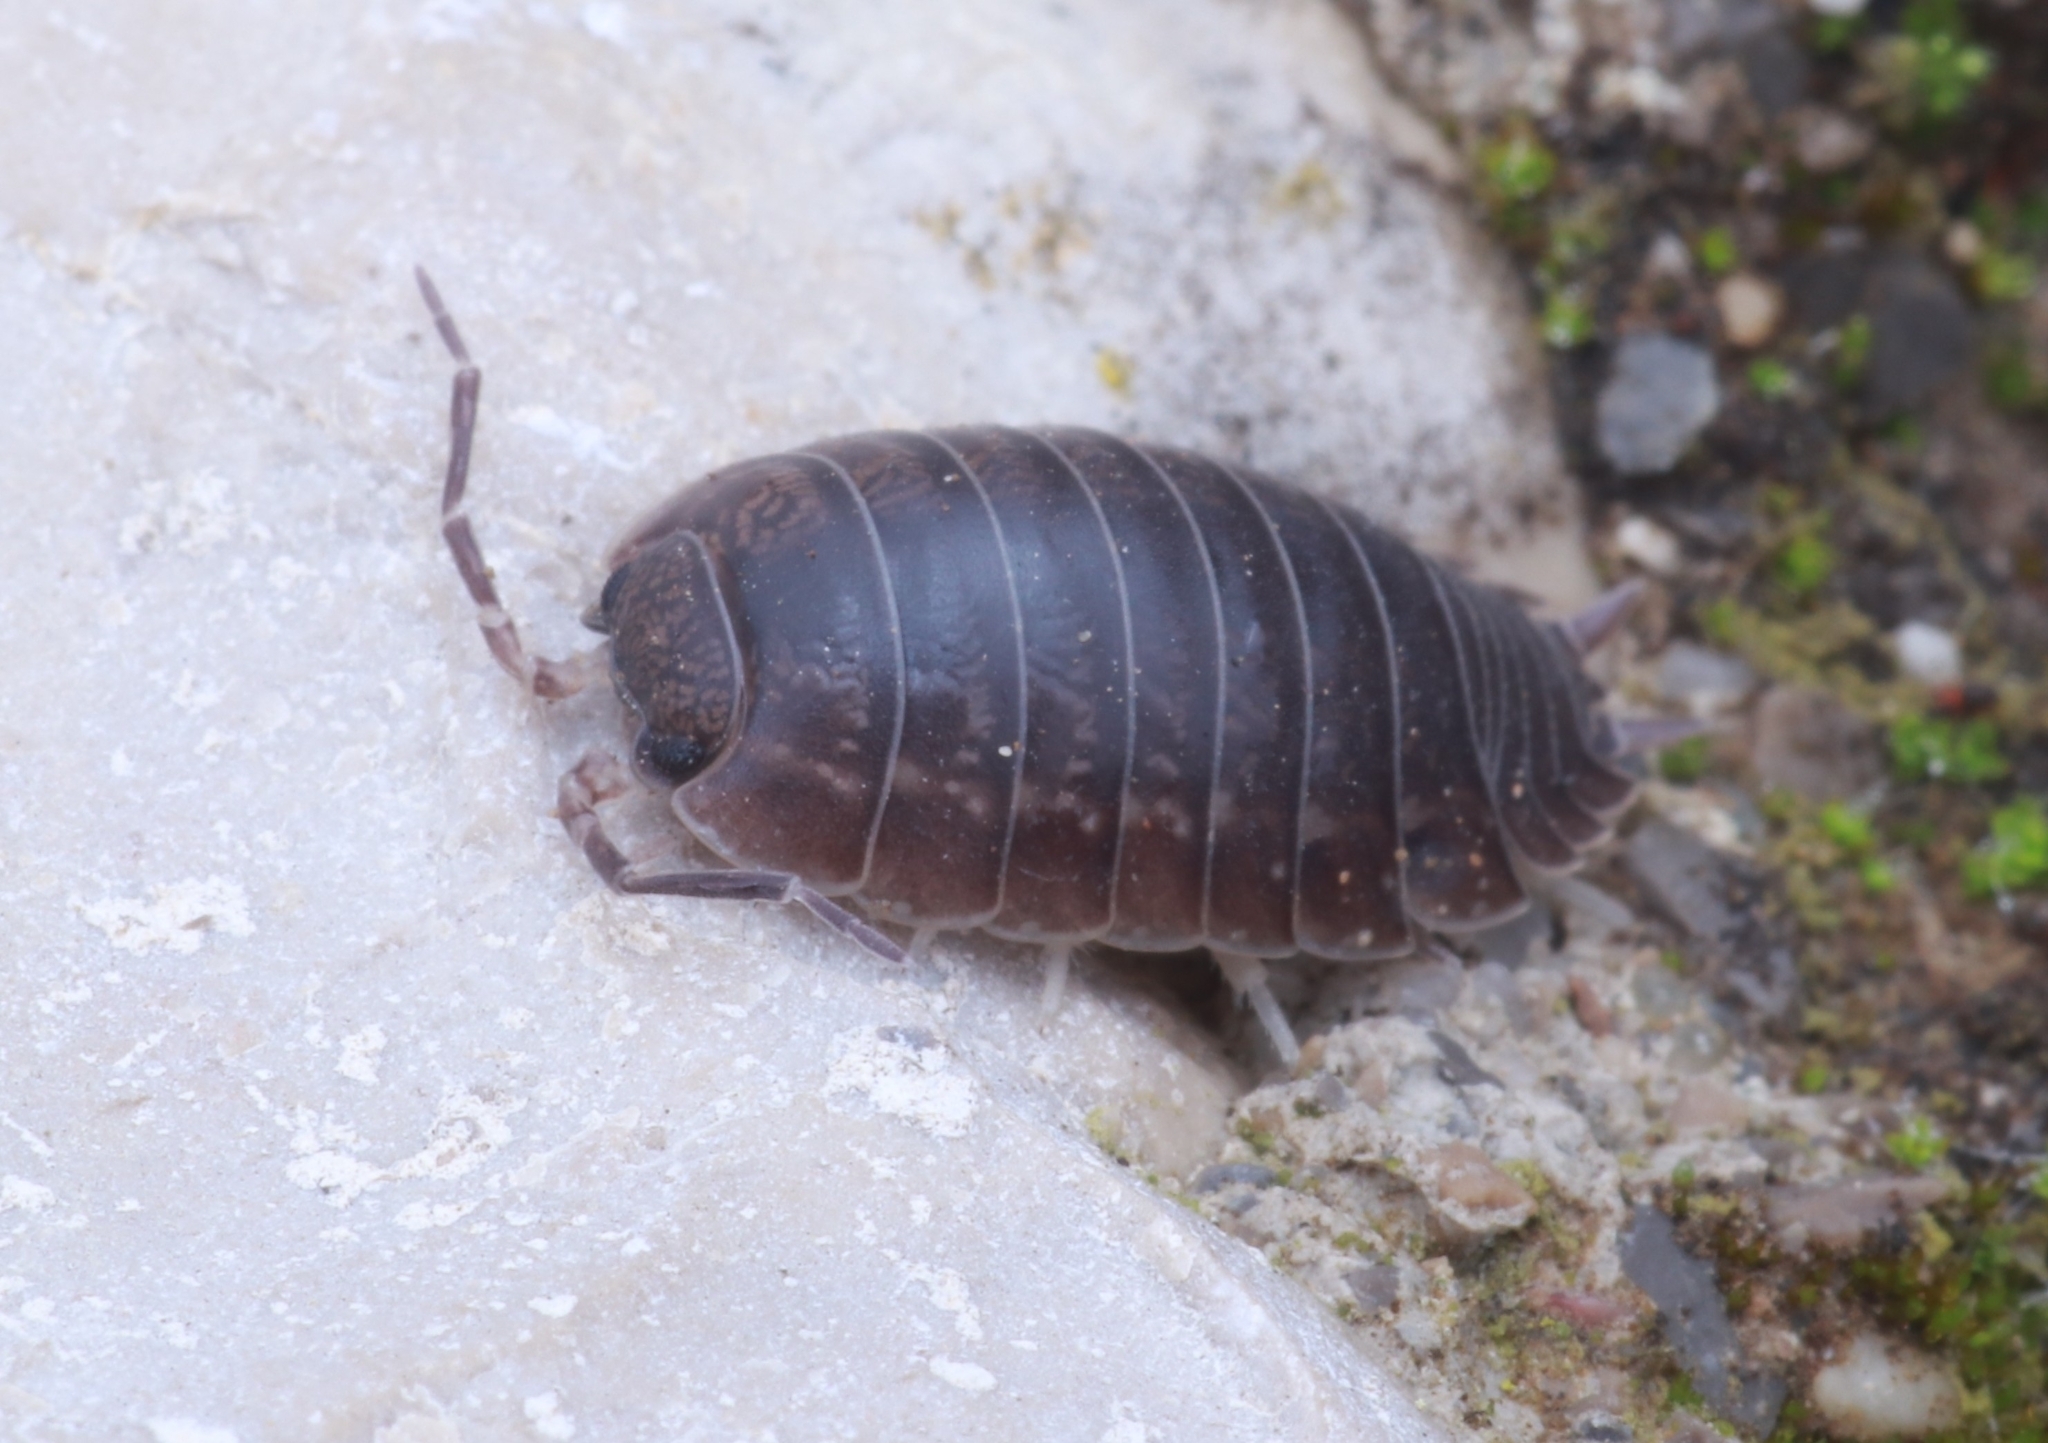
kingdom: Animalia
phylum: Arthropoda
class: Malacostraca
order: Isopoda
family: Porcellionidae
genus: Porcellio
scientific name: Porcellio laevis
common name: Swift woodlouse
